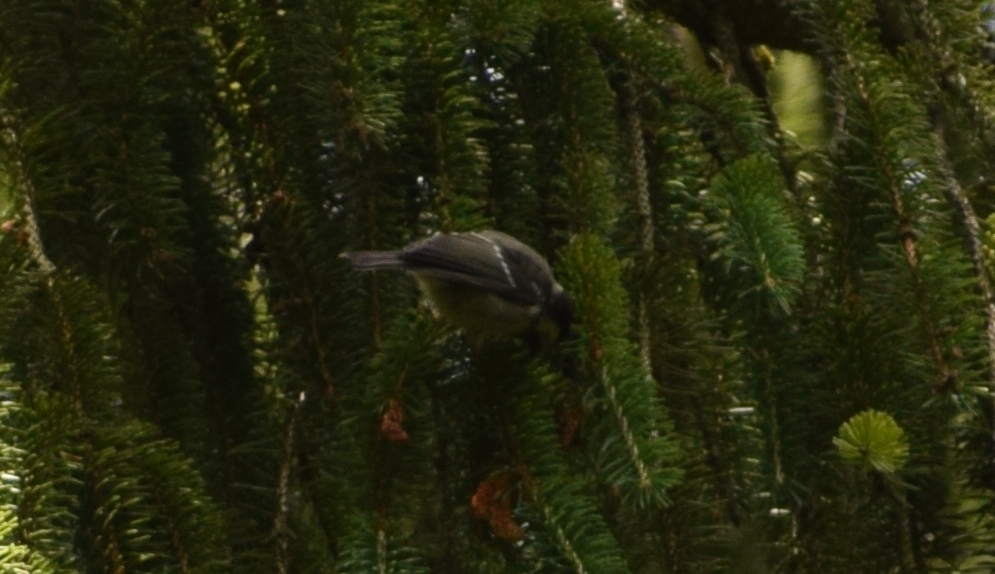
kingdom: Animalia
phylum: Chordata
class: Aves
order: Passeriformes
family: Paridae
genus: Parus
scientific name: Parus major
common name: Great tit
